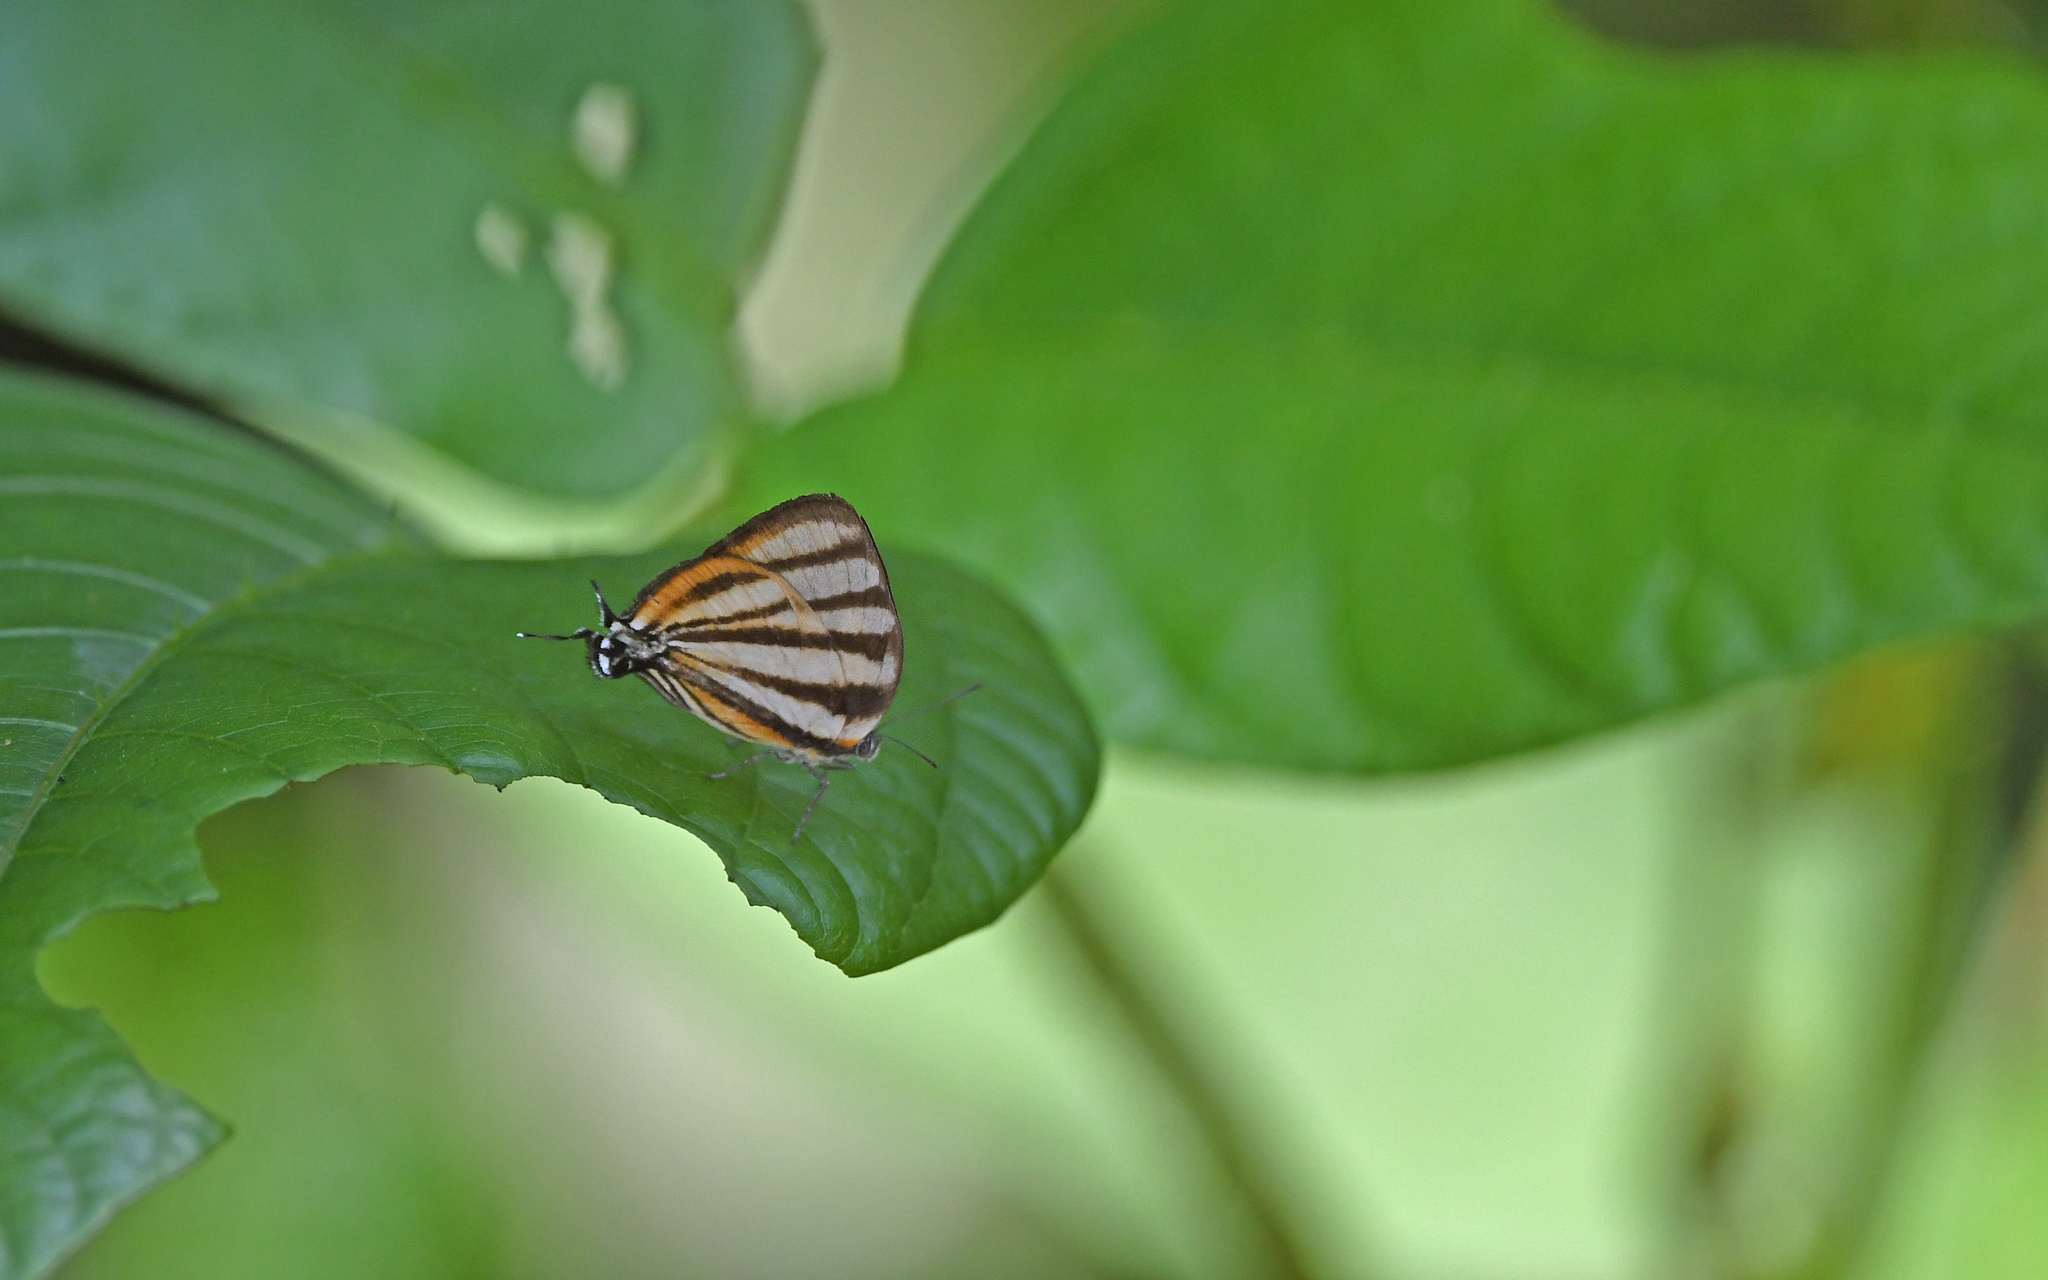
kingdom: Animalia
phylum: Arthropoda
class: Insecta
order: Lepidoptera
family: Lycaenidae
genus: Arawacus
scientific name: Arawacus separata
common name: Separated stripestreak
